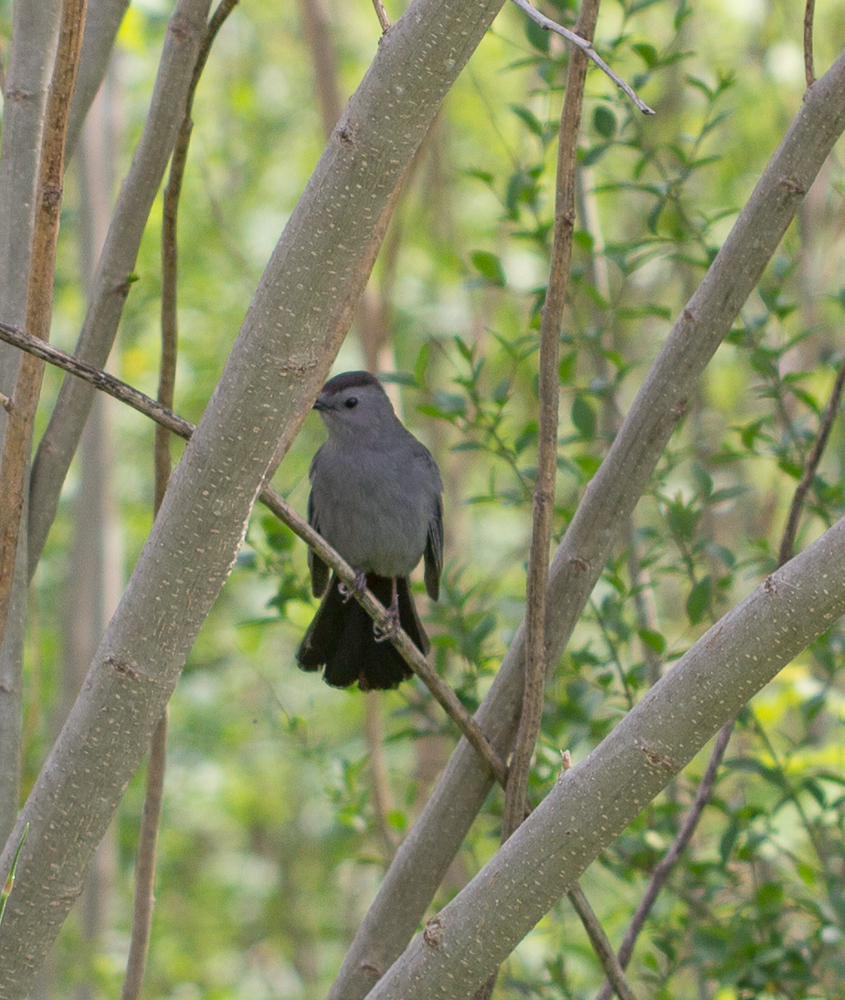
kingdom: Animalia
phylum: Chordata
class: Aves
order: Passeriformes
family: Mimidae
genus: Dumetella
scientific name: Dumetella carolinensis
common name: Gray catbird
